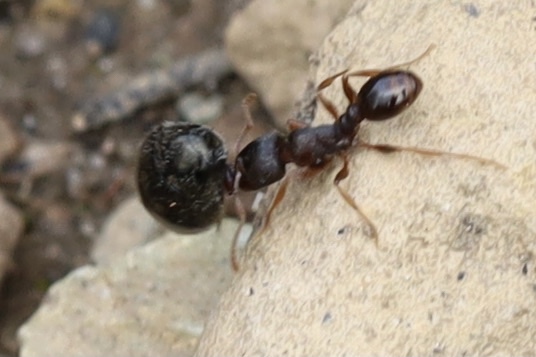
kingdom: Animalia
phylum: Arthropoda
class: Insecta
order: Hymenoptera
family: Formicidae
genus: Tetramorium
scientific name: Tetramorium immigrans
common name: Pavement ant
